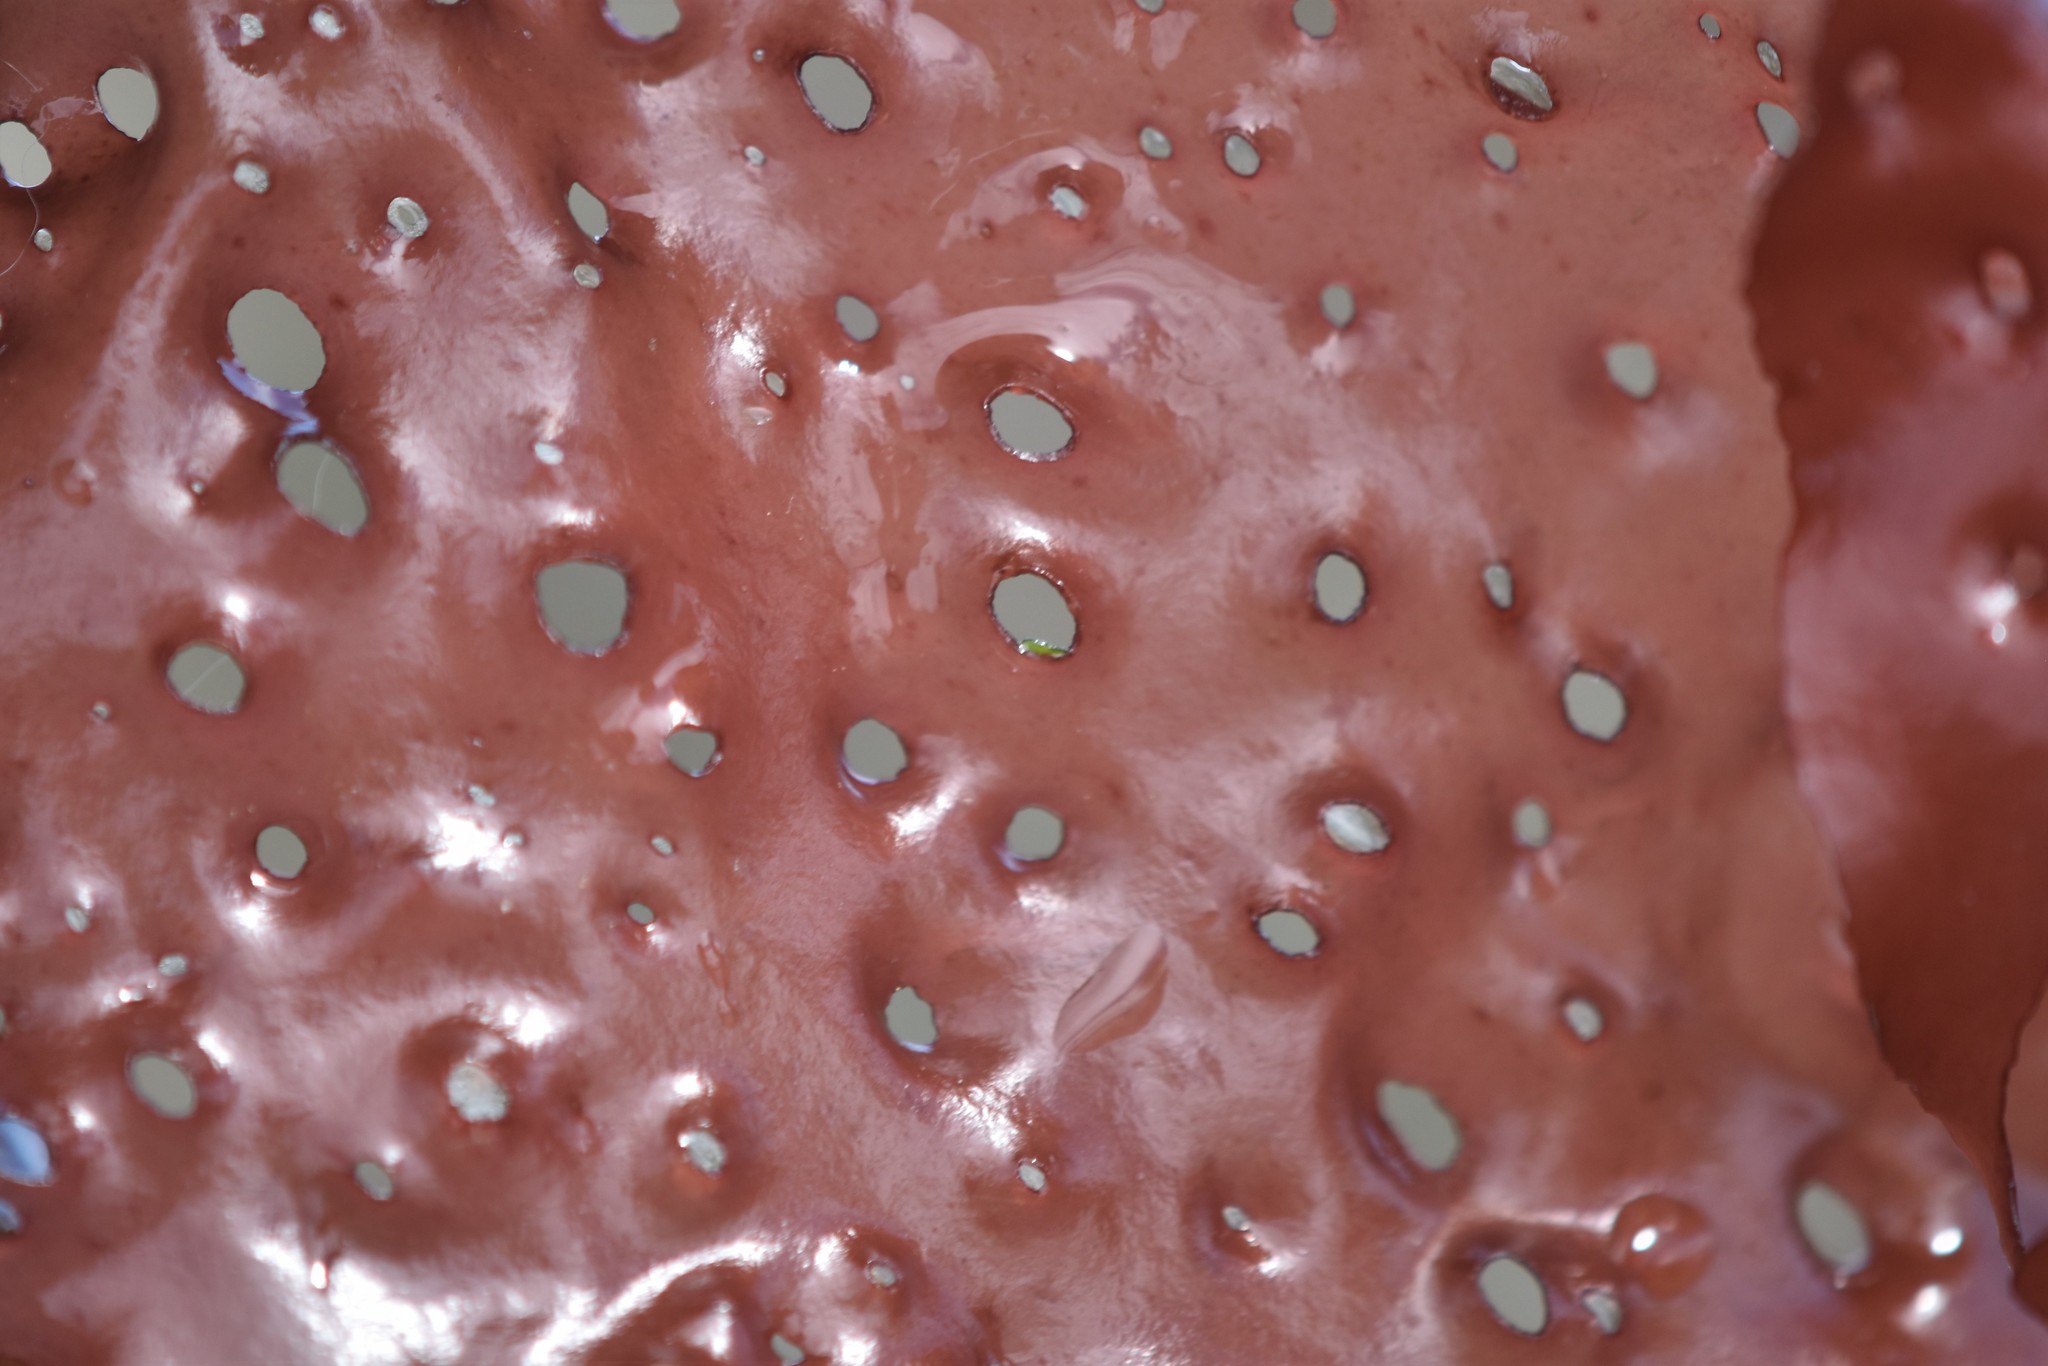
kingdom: Plantae
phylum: Rhodophyta
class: Florideophyceae
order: Rhodymeniales
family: Rhodymeniaceae
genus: Sparlingia
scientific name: Sparlingia pertusa
